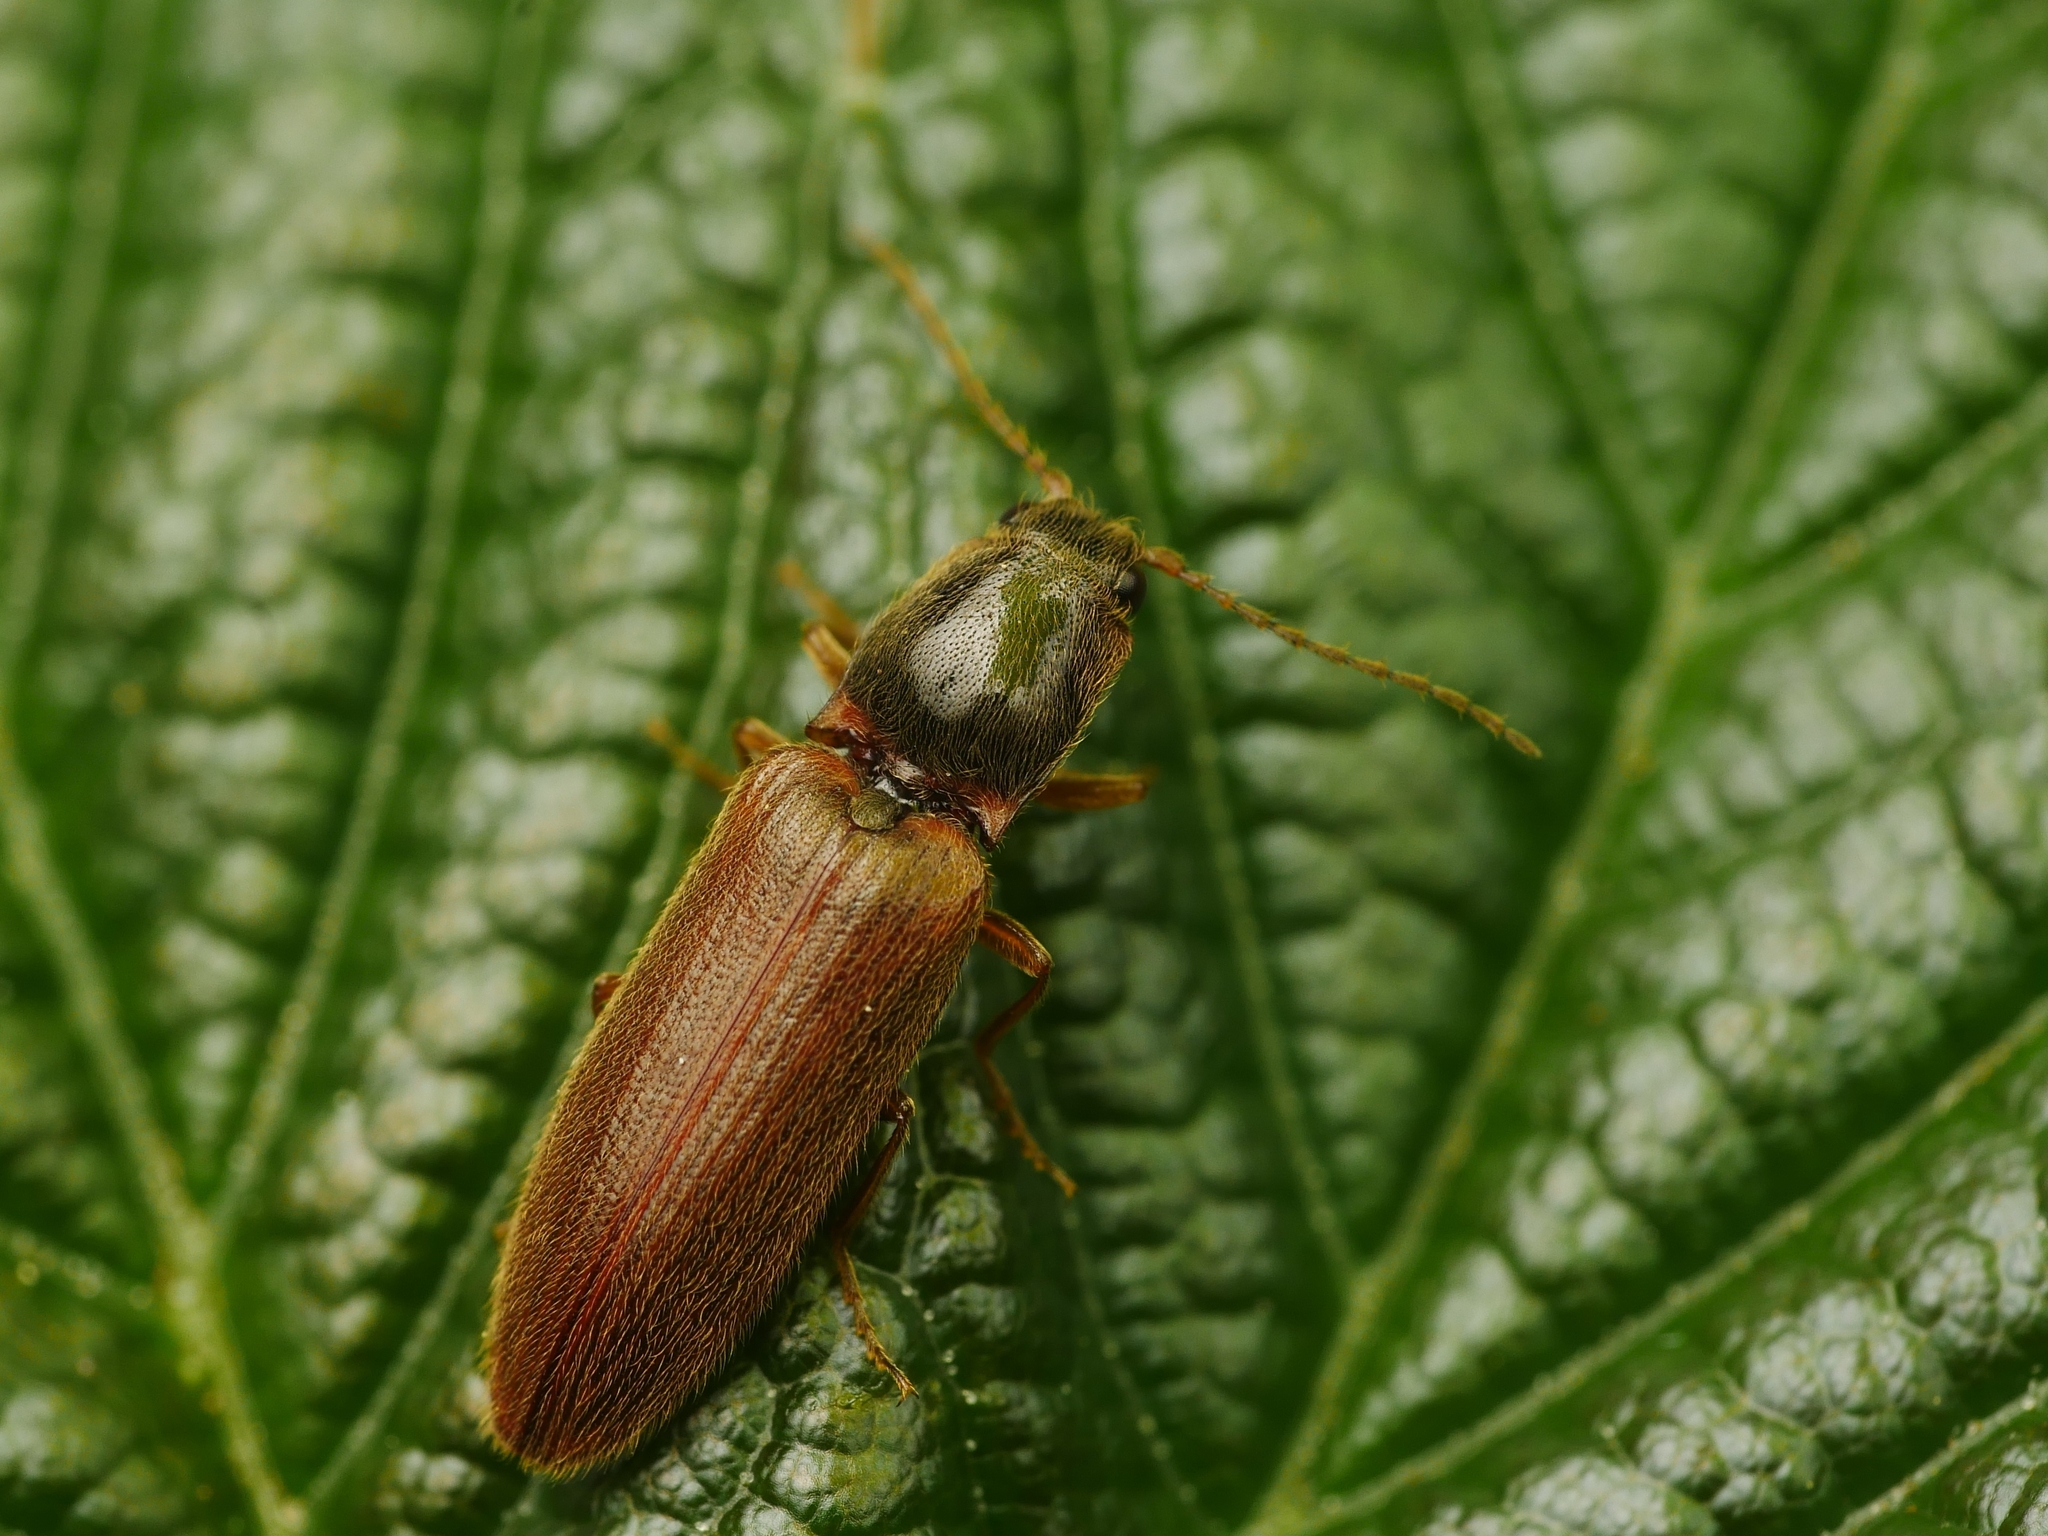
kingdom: Animalia
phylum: Arthropoda
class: Insecta
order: Coleoptera
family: Elateridae
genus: Athous
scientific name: Athous subfuscus
